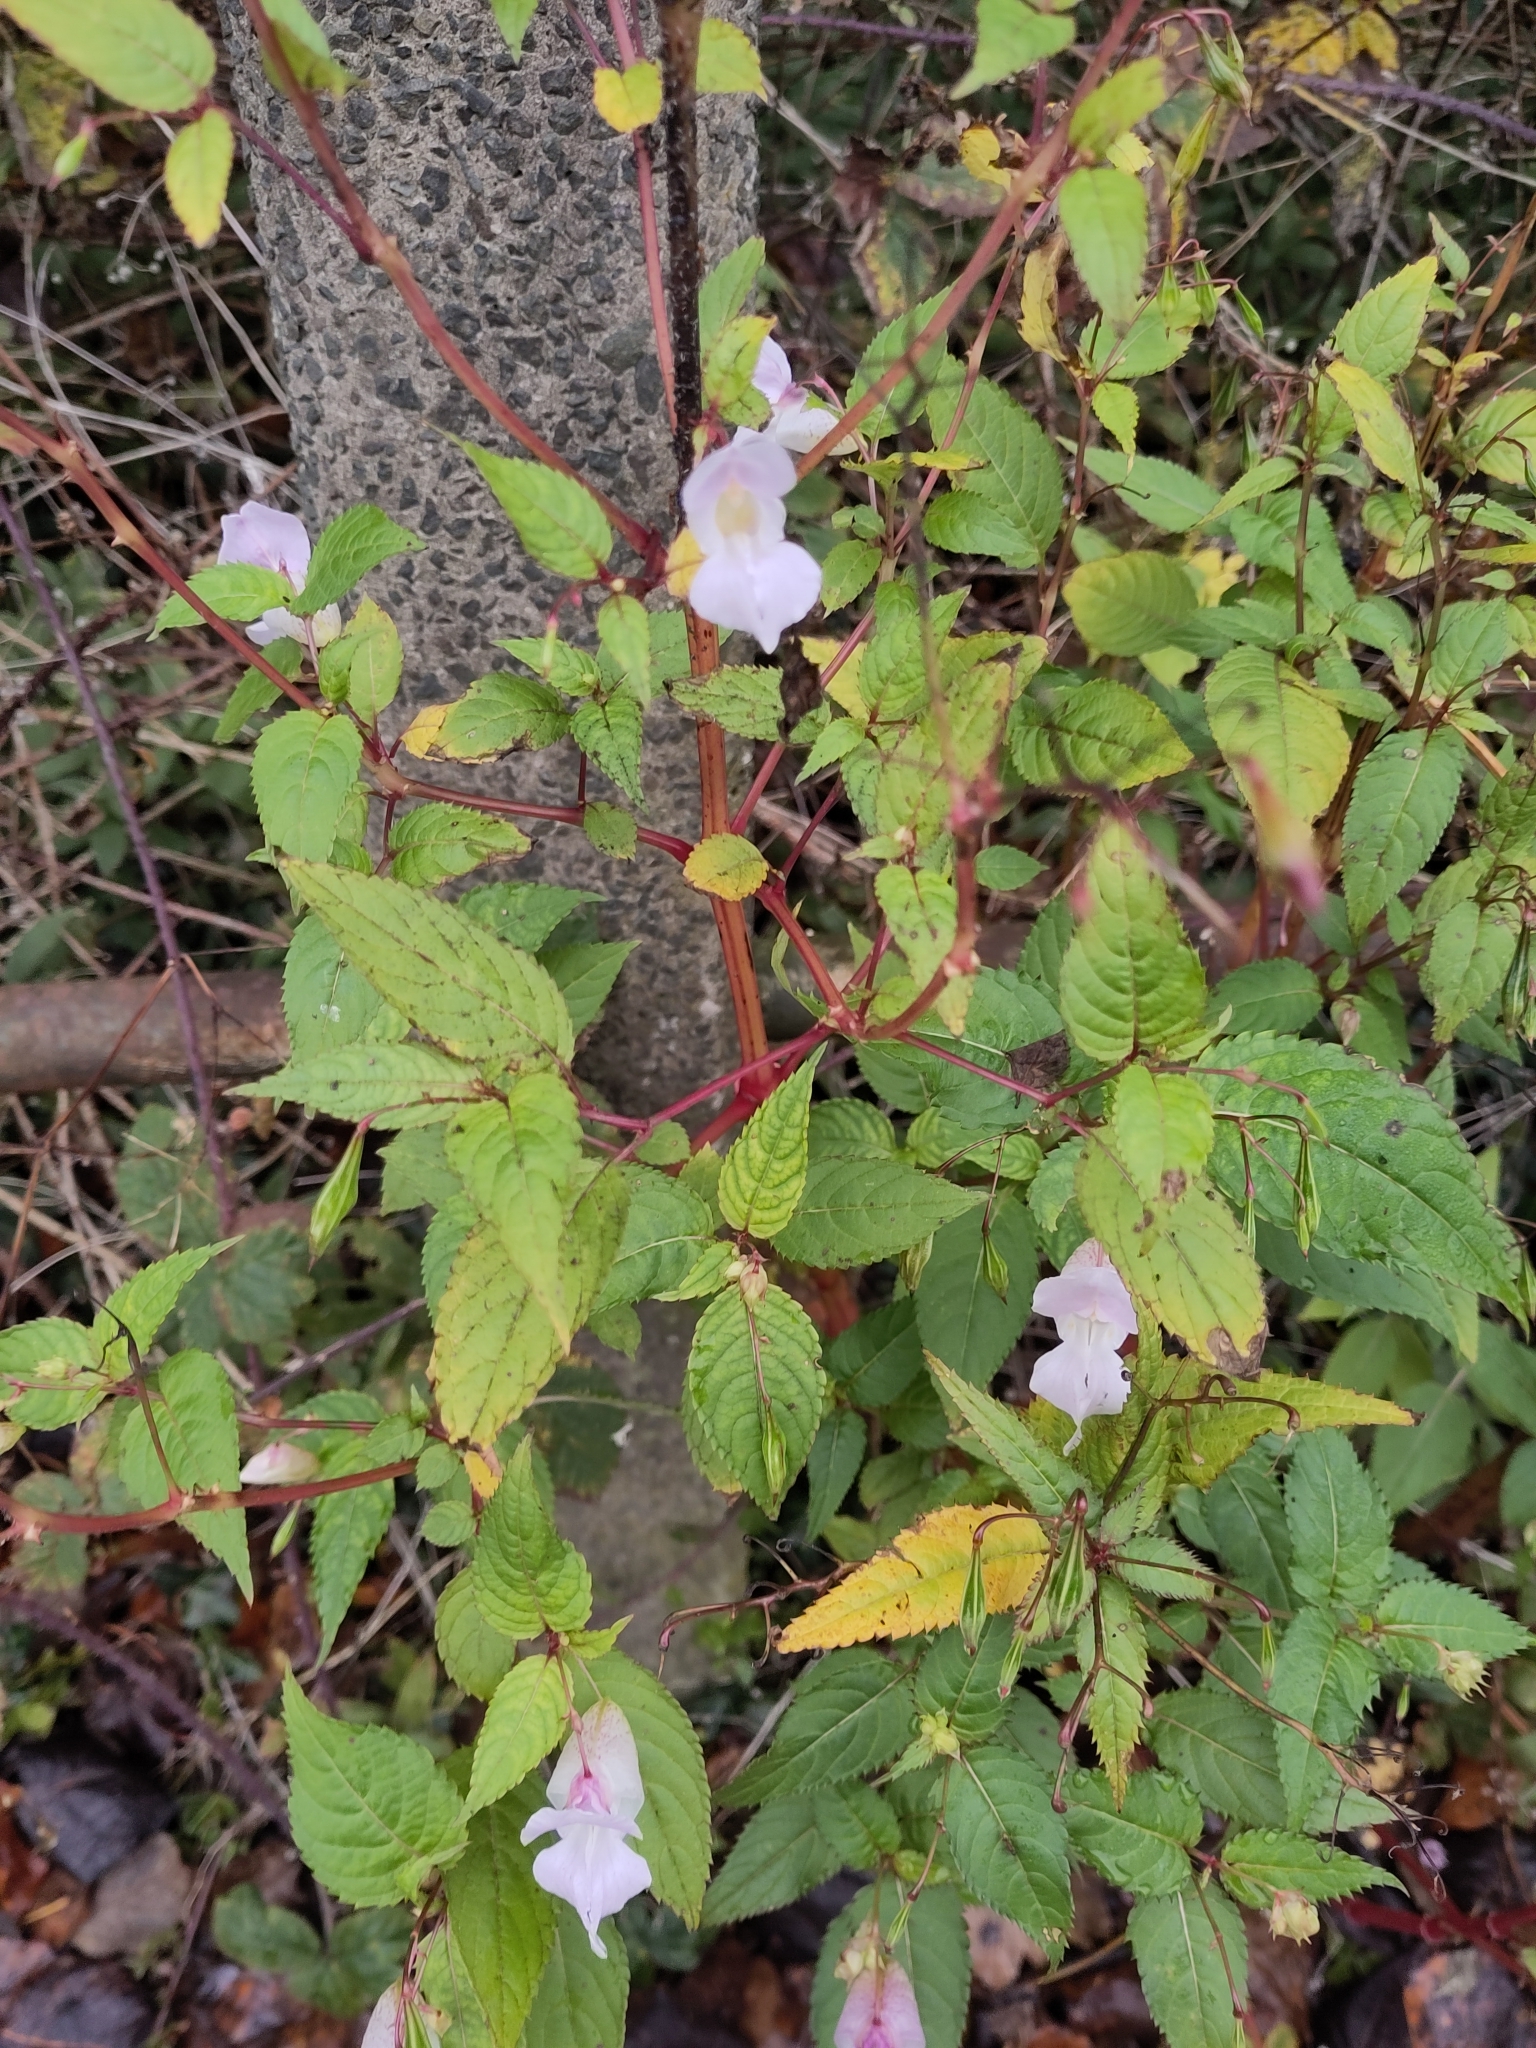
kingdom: Plantae
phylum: Tracheophyta
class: Magnoliopsida
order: Ericales
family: Balsaminaceae
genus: Impatiens
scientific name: Impatiens glandulifera
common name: Himalayan balsam
